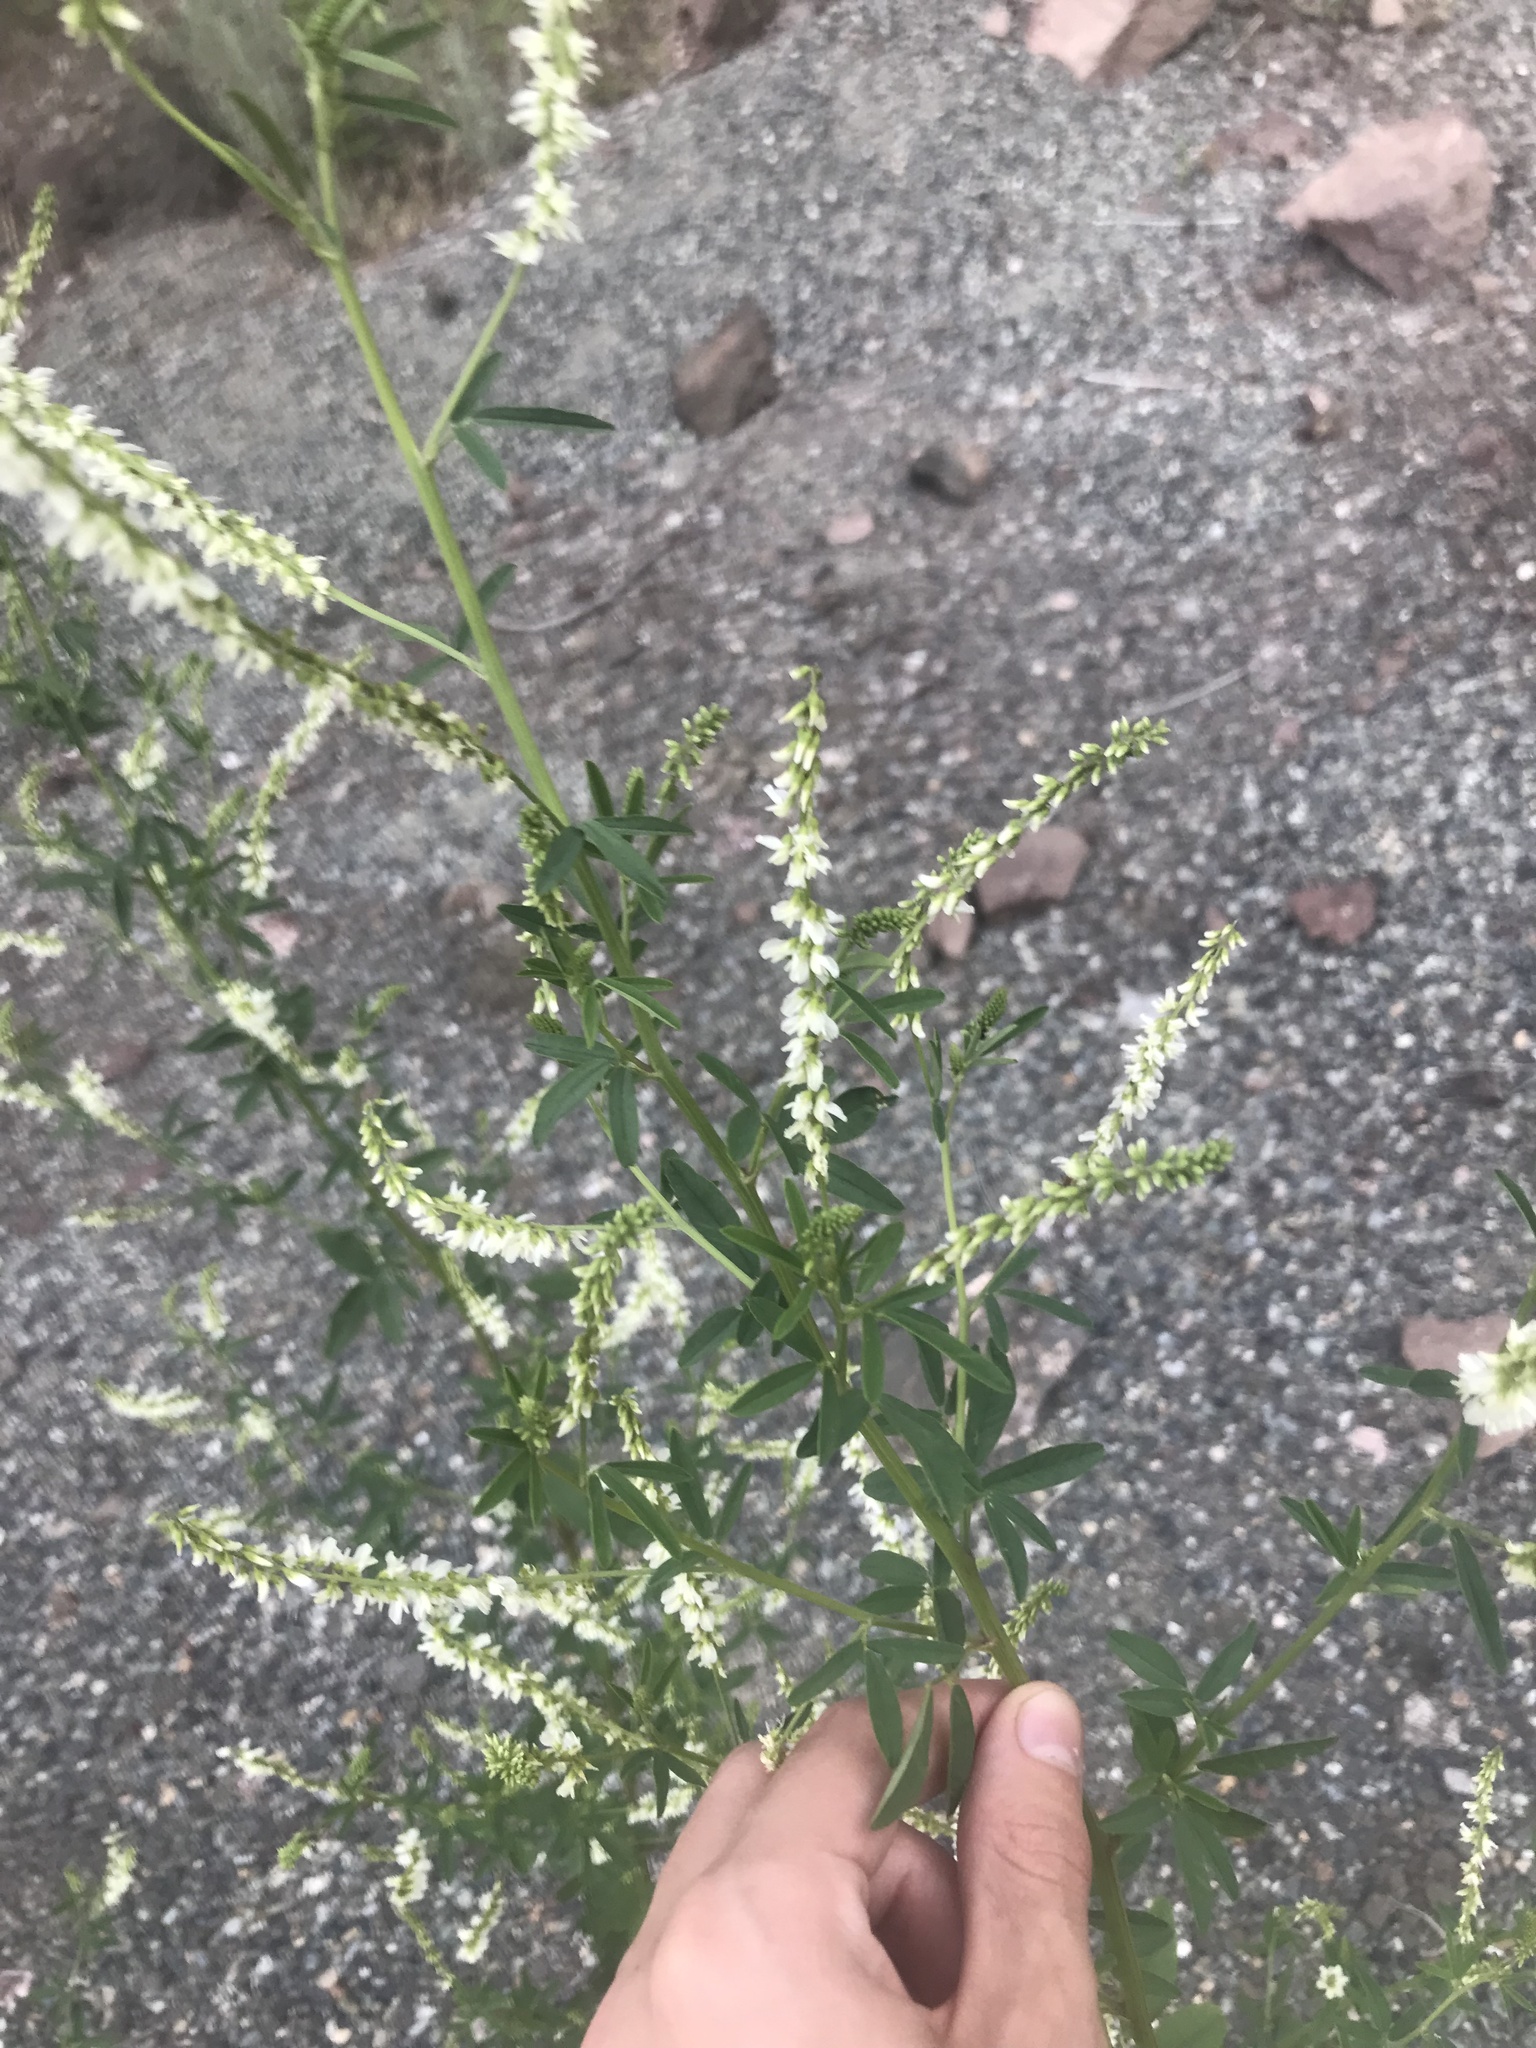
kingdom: Plantae
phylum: Tracheophyta
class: Magnoliopsida
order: Fabales
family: Fabaceae
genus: Melilotus
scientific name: Melilotus albus
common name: White melilot
